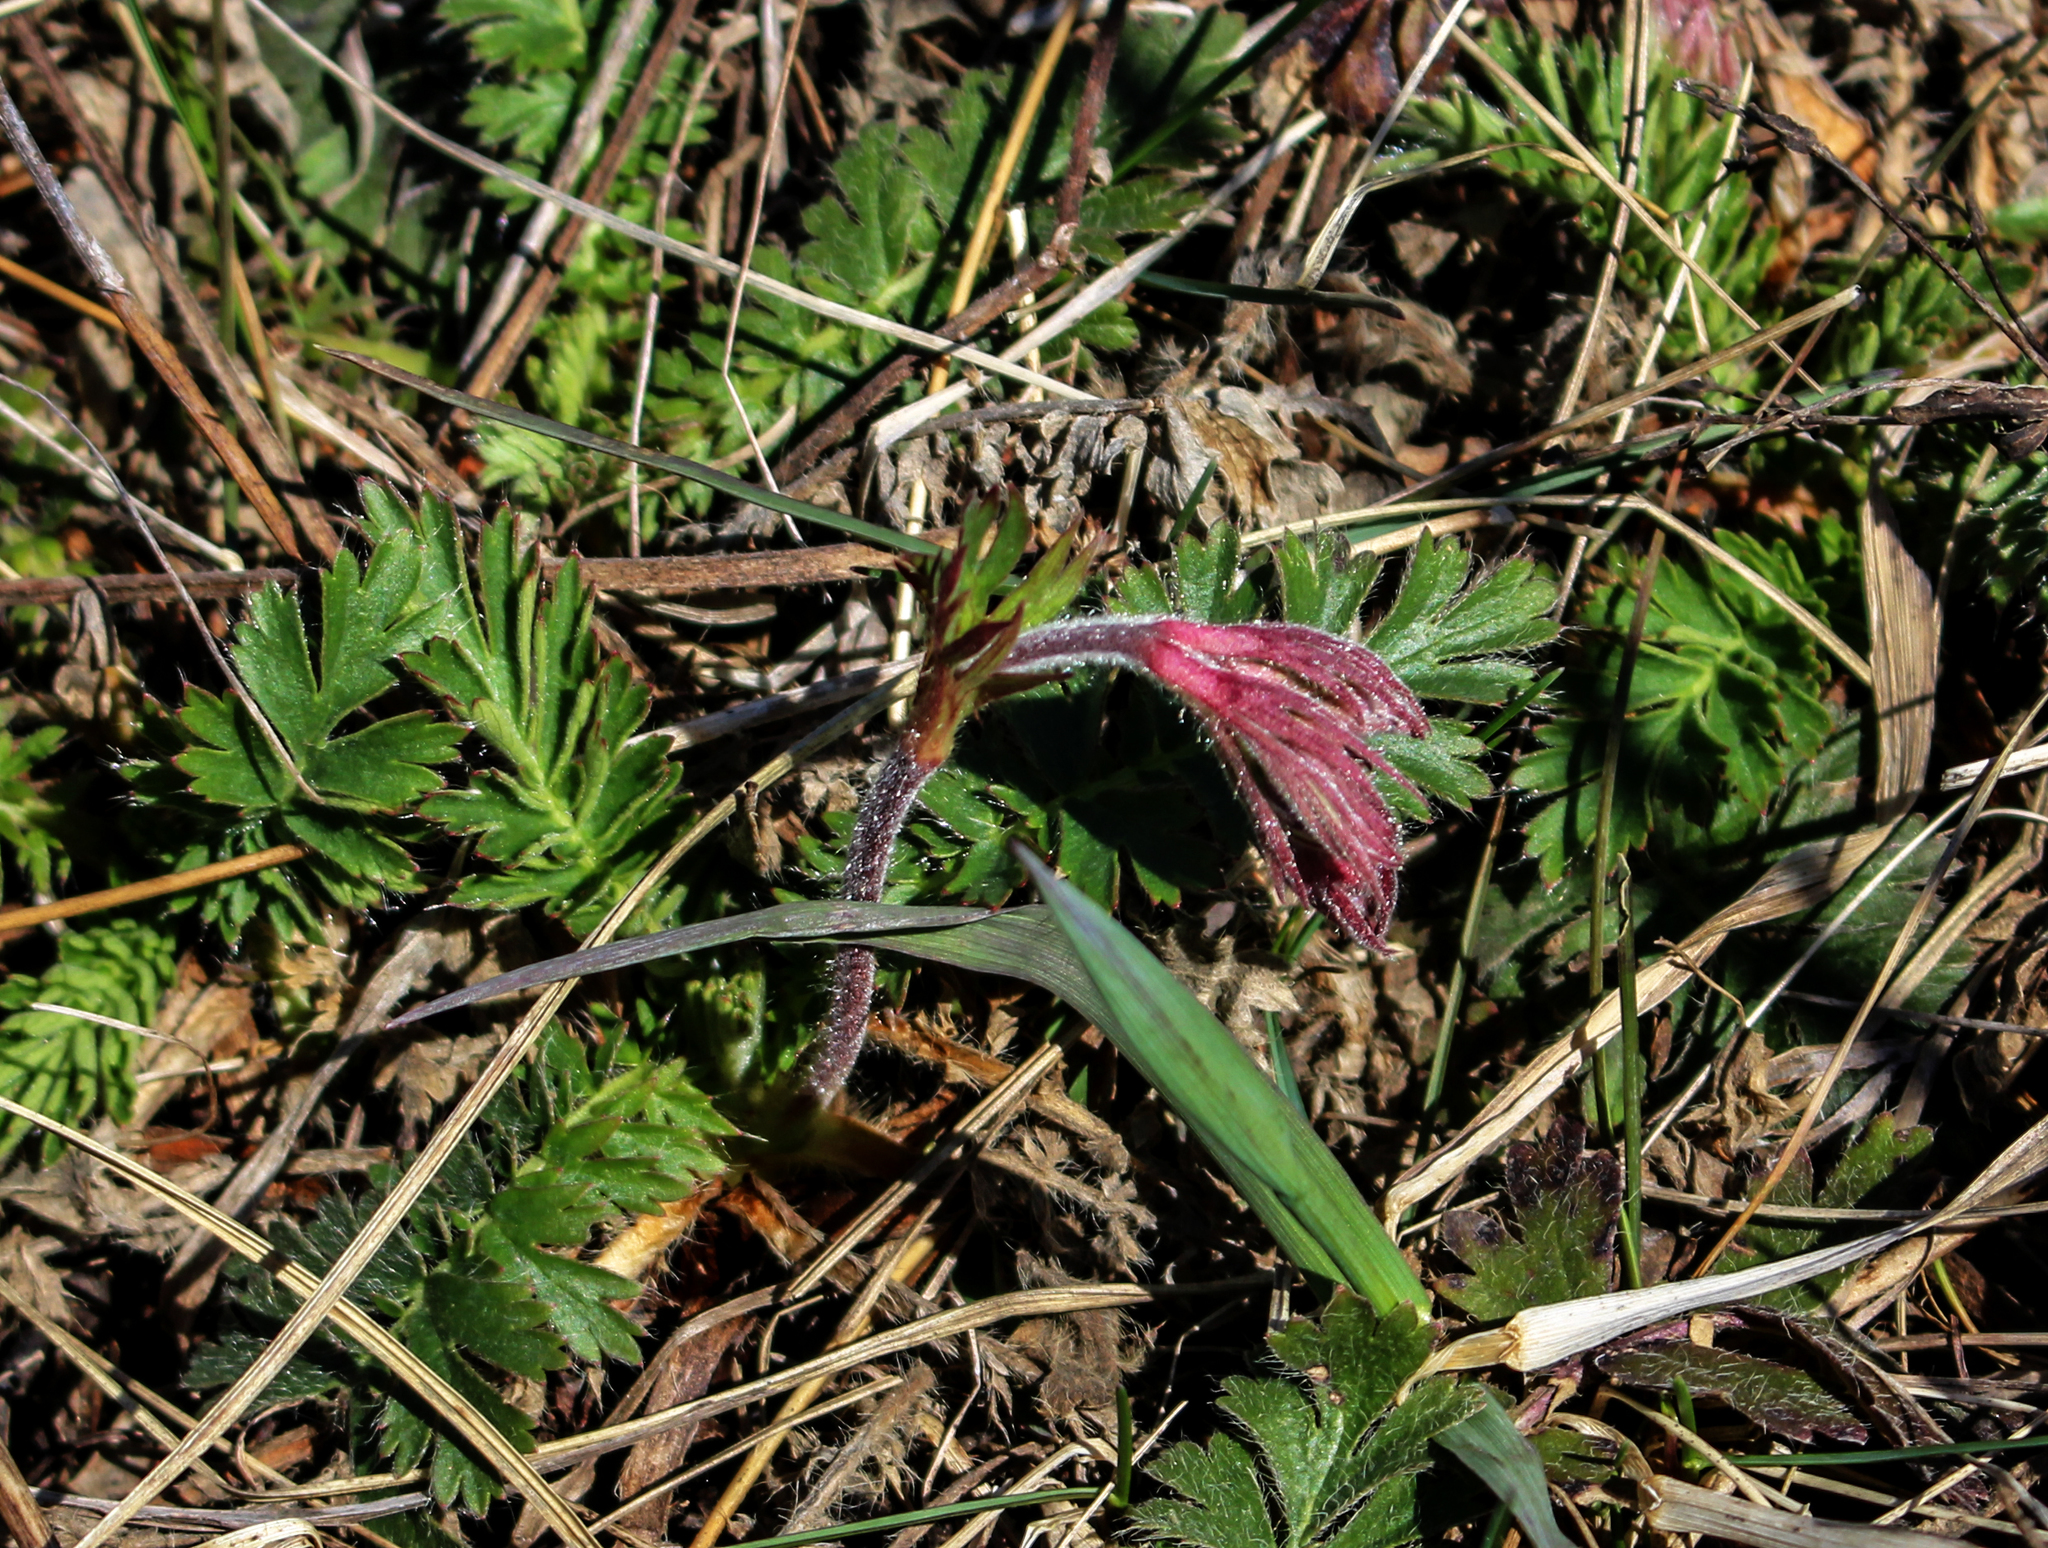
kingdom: Plantae
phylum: Tracheophyta
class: Magnoliopsida
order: Rosales
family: Rosaceae
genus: Geum
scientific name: Geum triflorum
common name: Old man's whiskers
